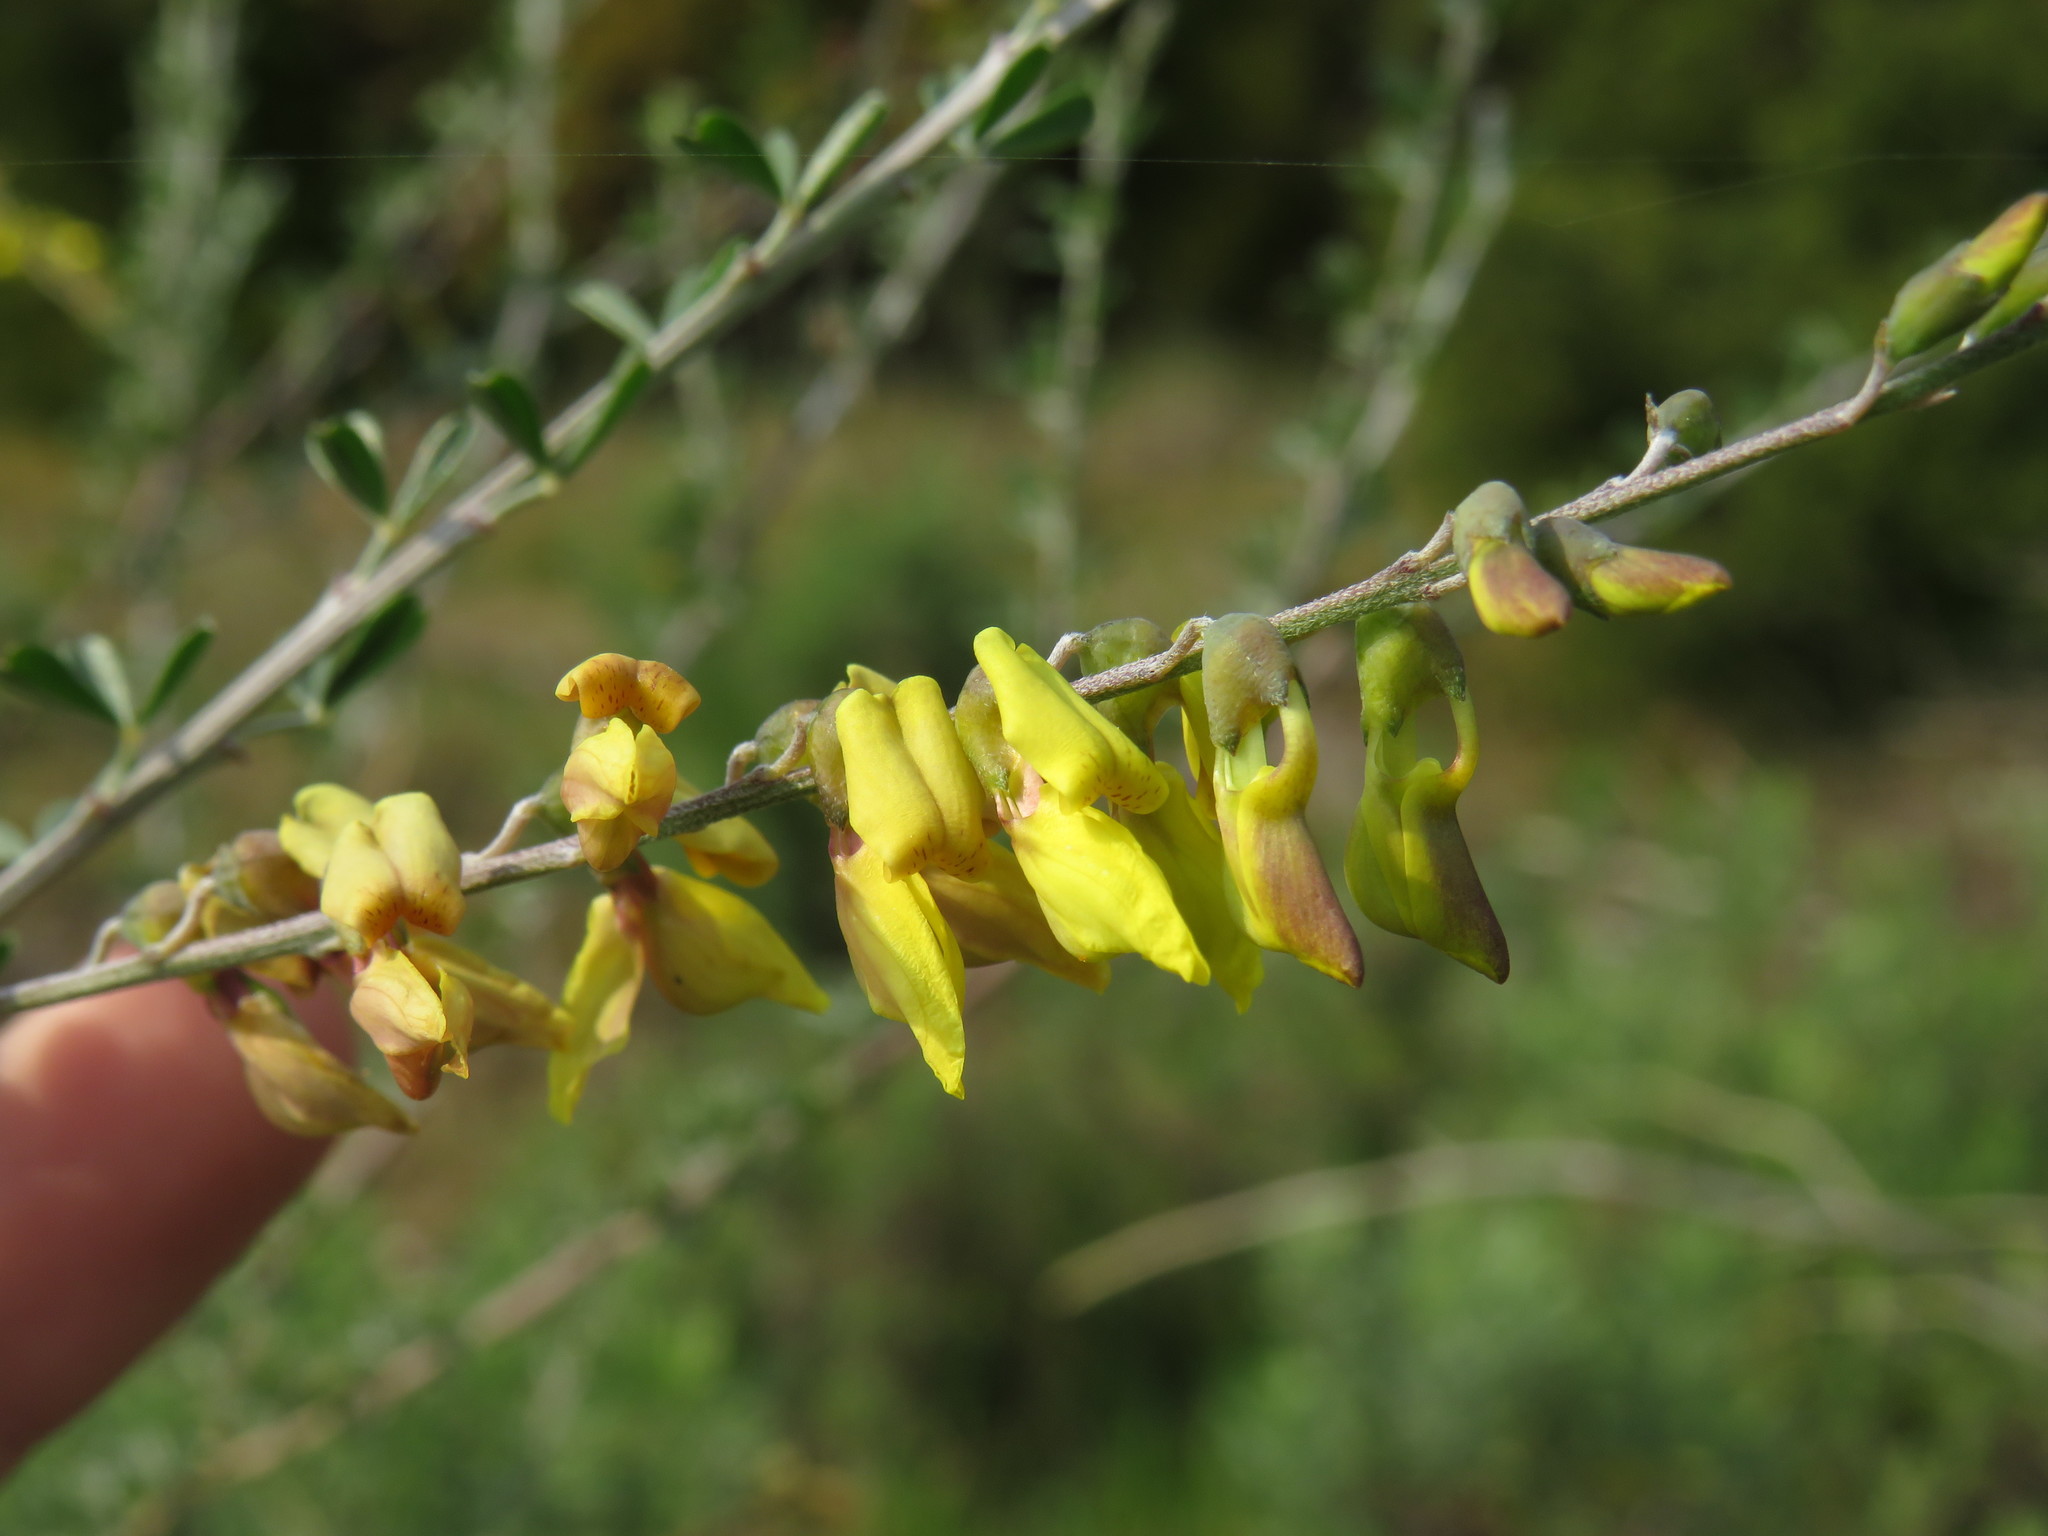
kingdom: Plantae
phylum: Tracheophyta
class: Magnoliopsida
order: Fabales
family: Fabaceae
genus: Wiborgia
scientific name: Wiborgia obcordata
